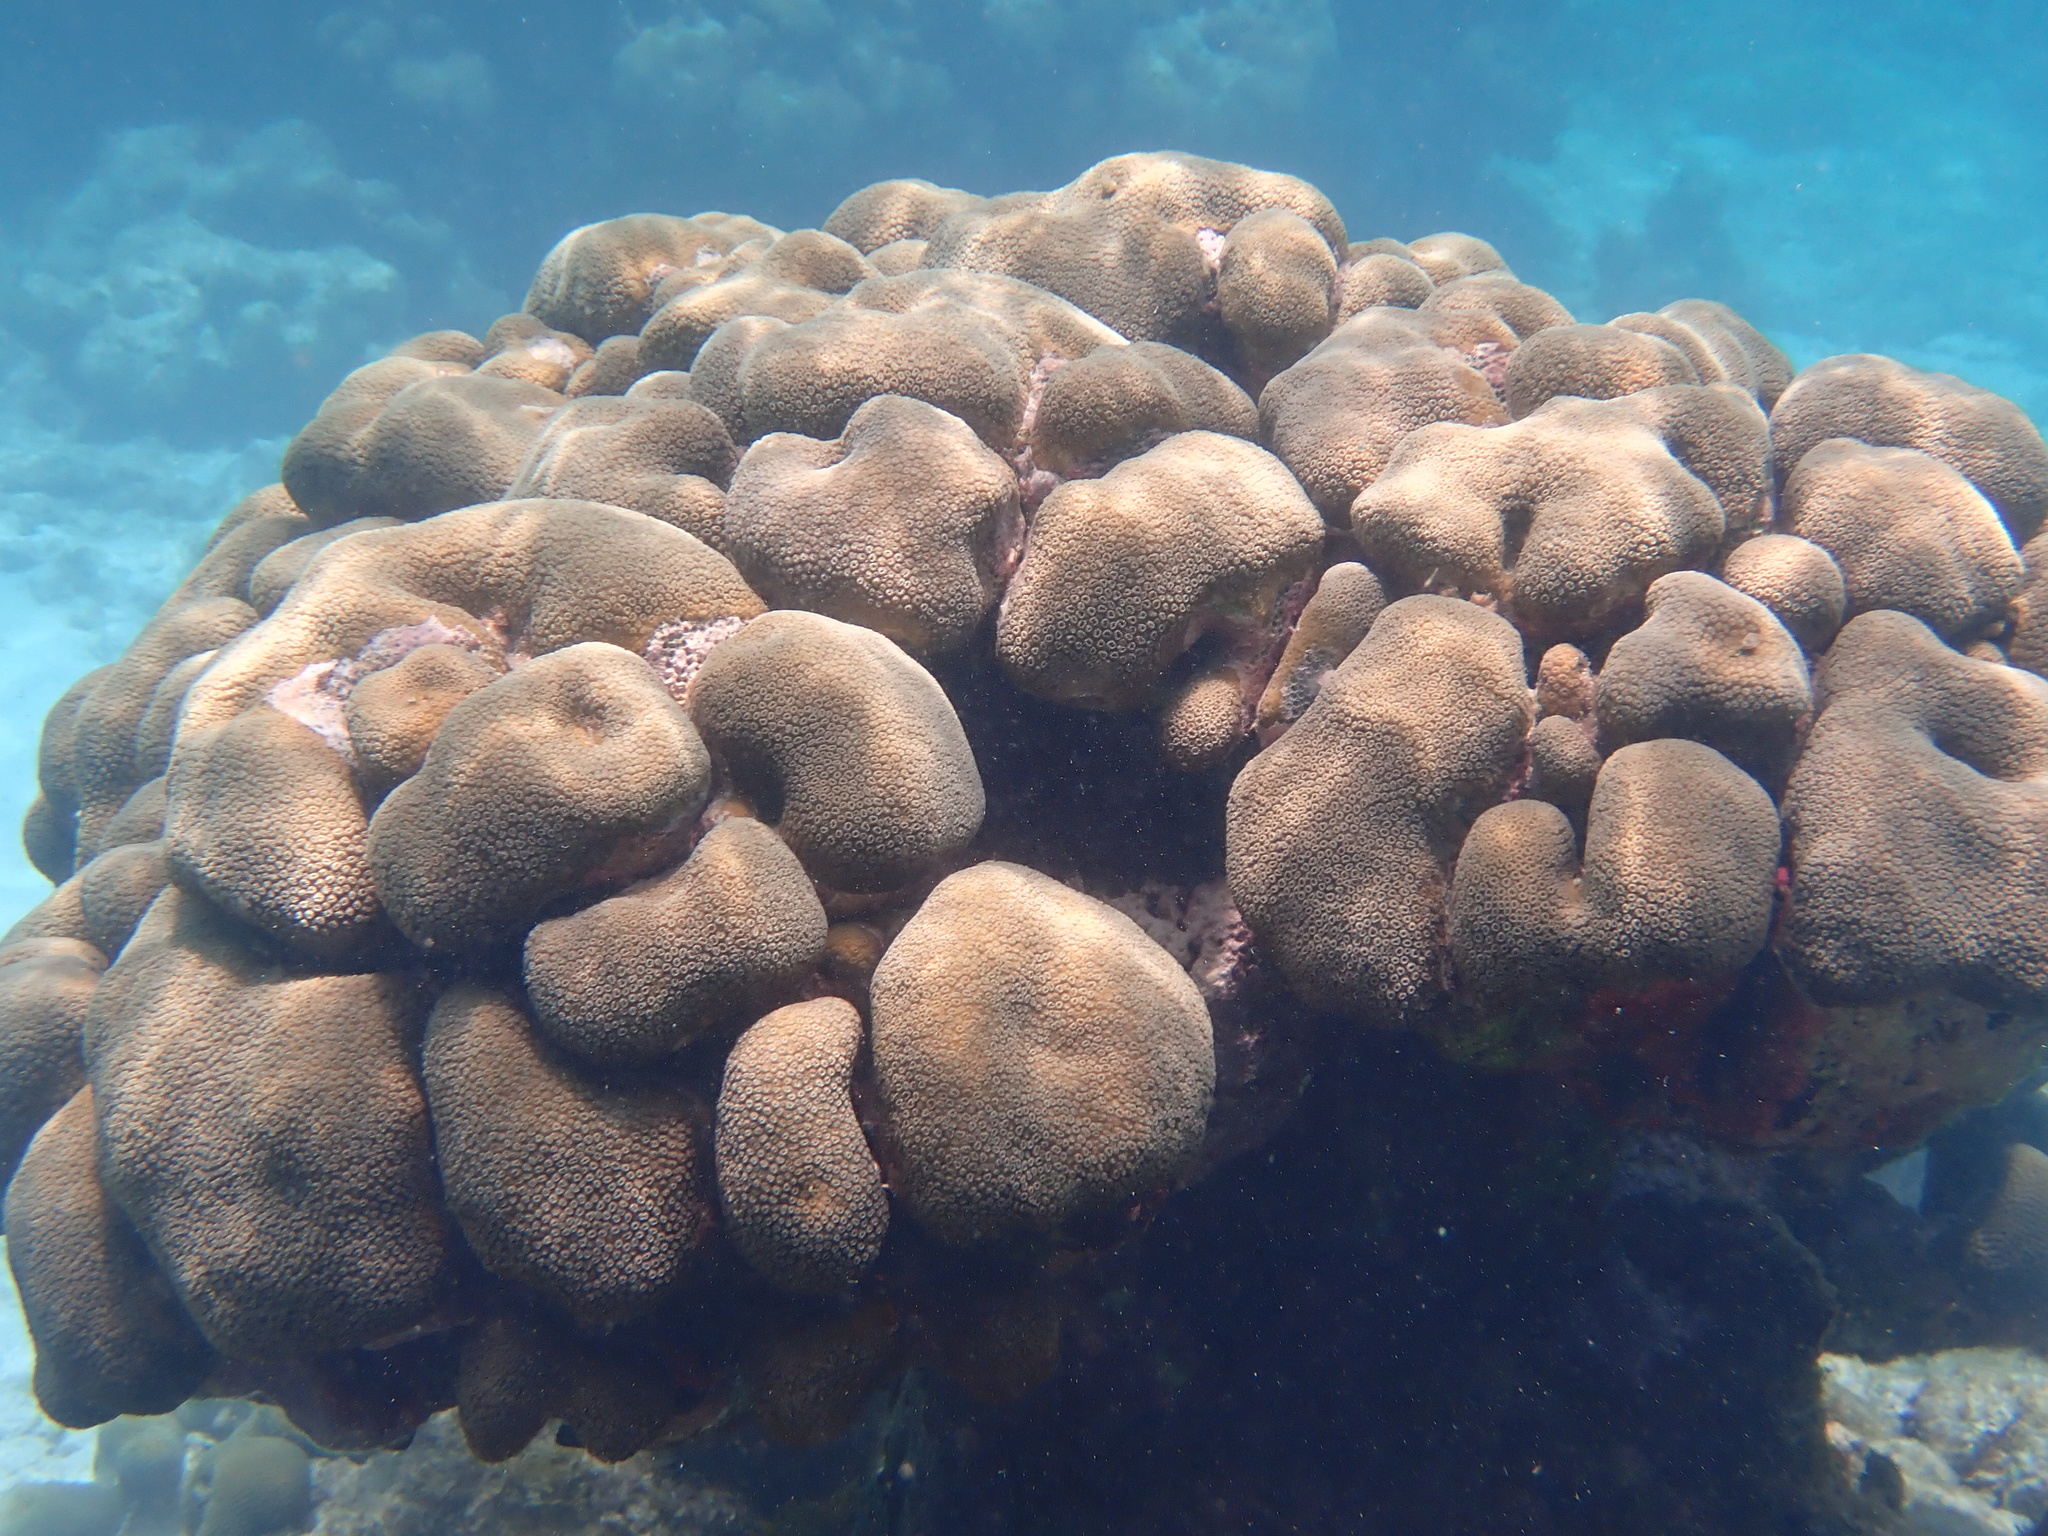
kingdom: Animalia
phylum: Cnidaria
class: Anthozoa
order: Scleractinia
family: Merulinidae
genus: Orbicella
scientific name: Orbicella annularis
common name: Boulder star coral
